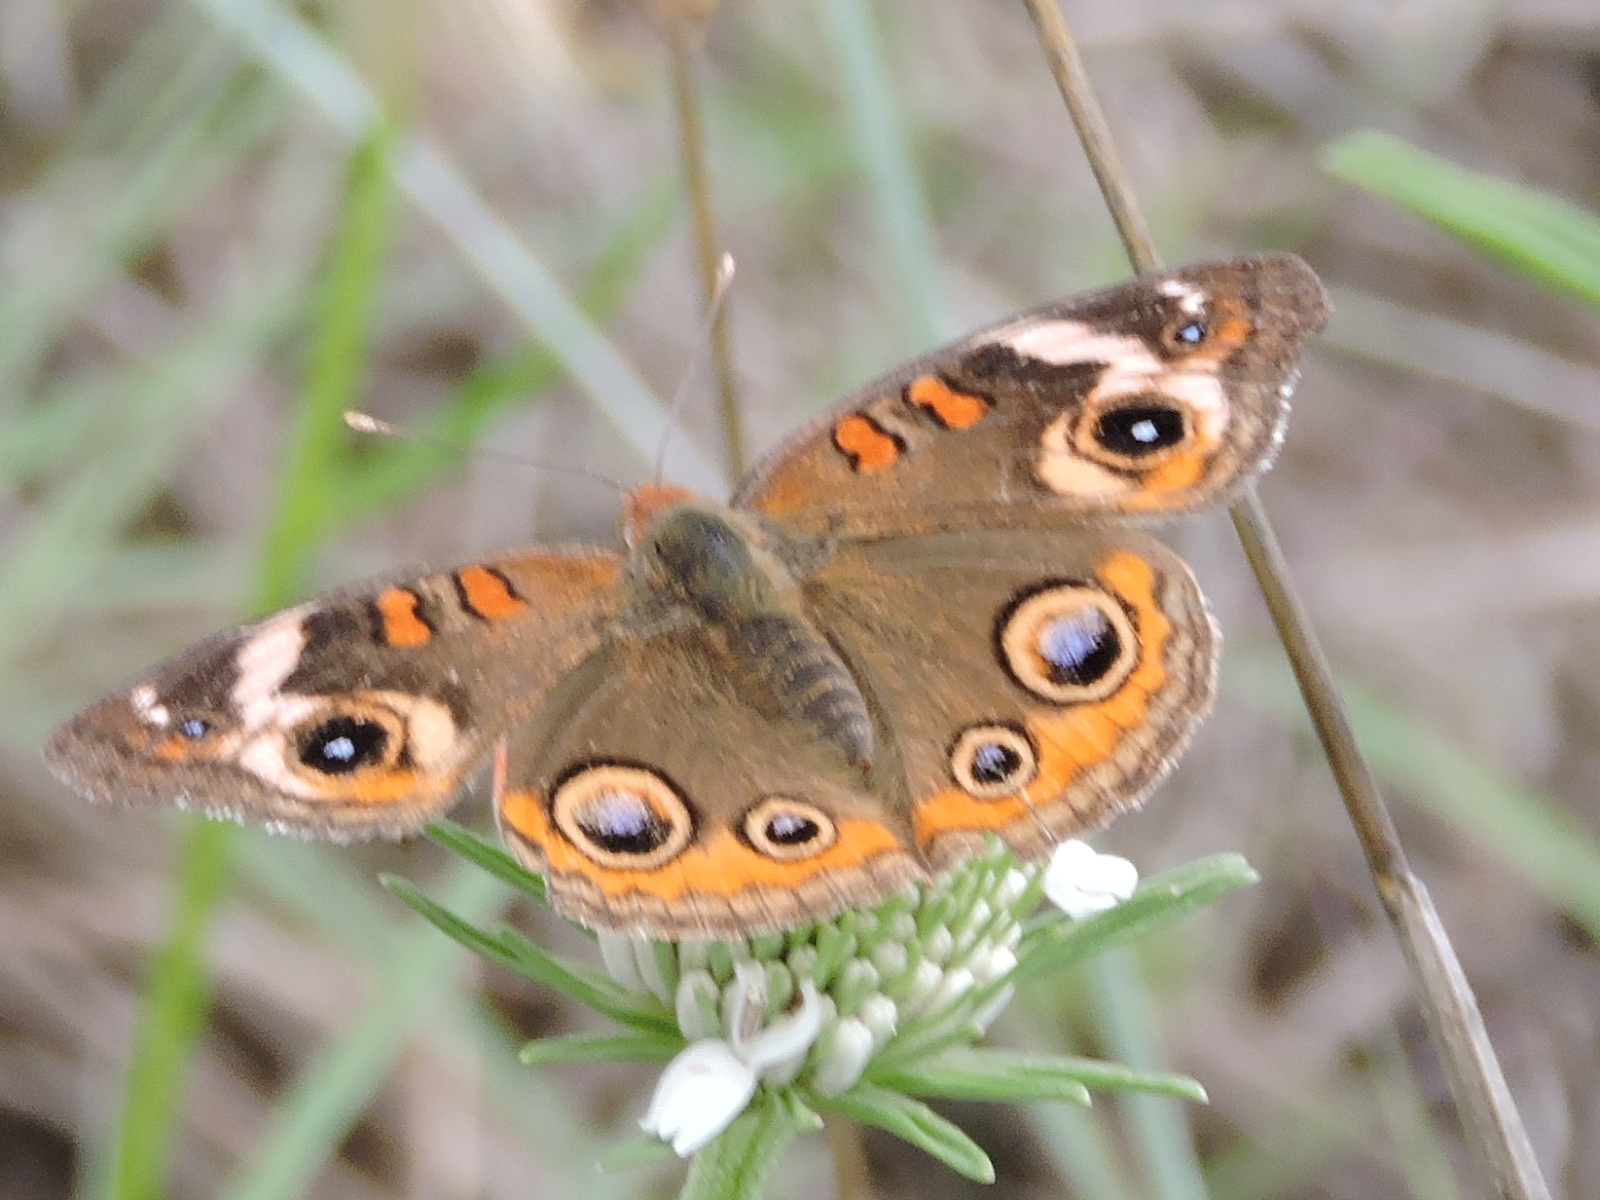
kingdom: Animalia
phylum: Arthropoda
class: Insecta
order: Lepidoptera
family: Nymphalidae
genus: Junonia
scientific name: Junonia coenia
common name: Common buckeye
